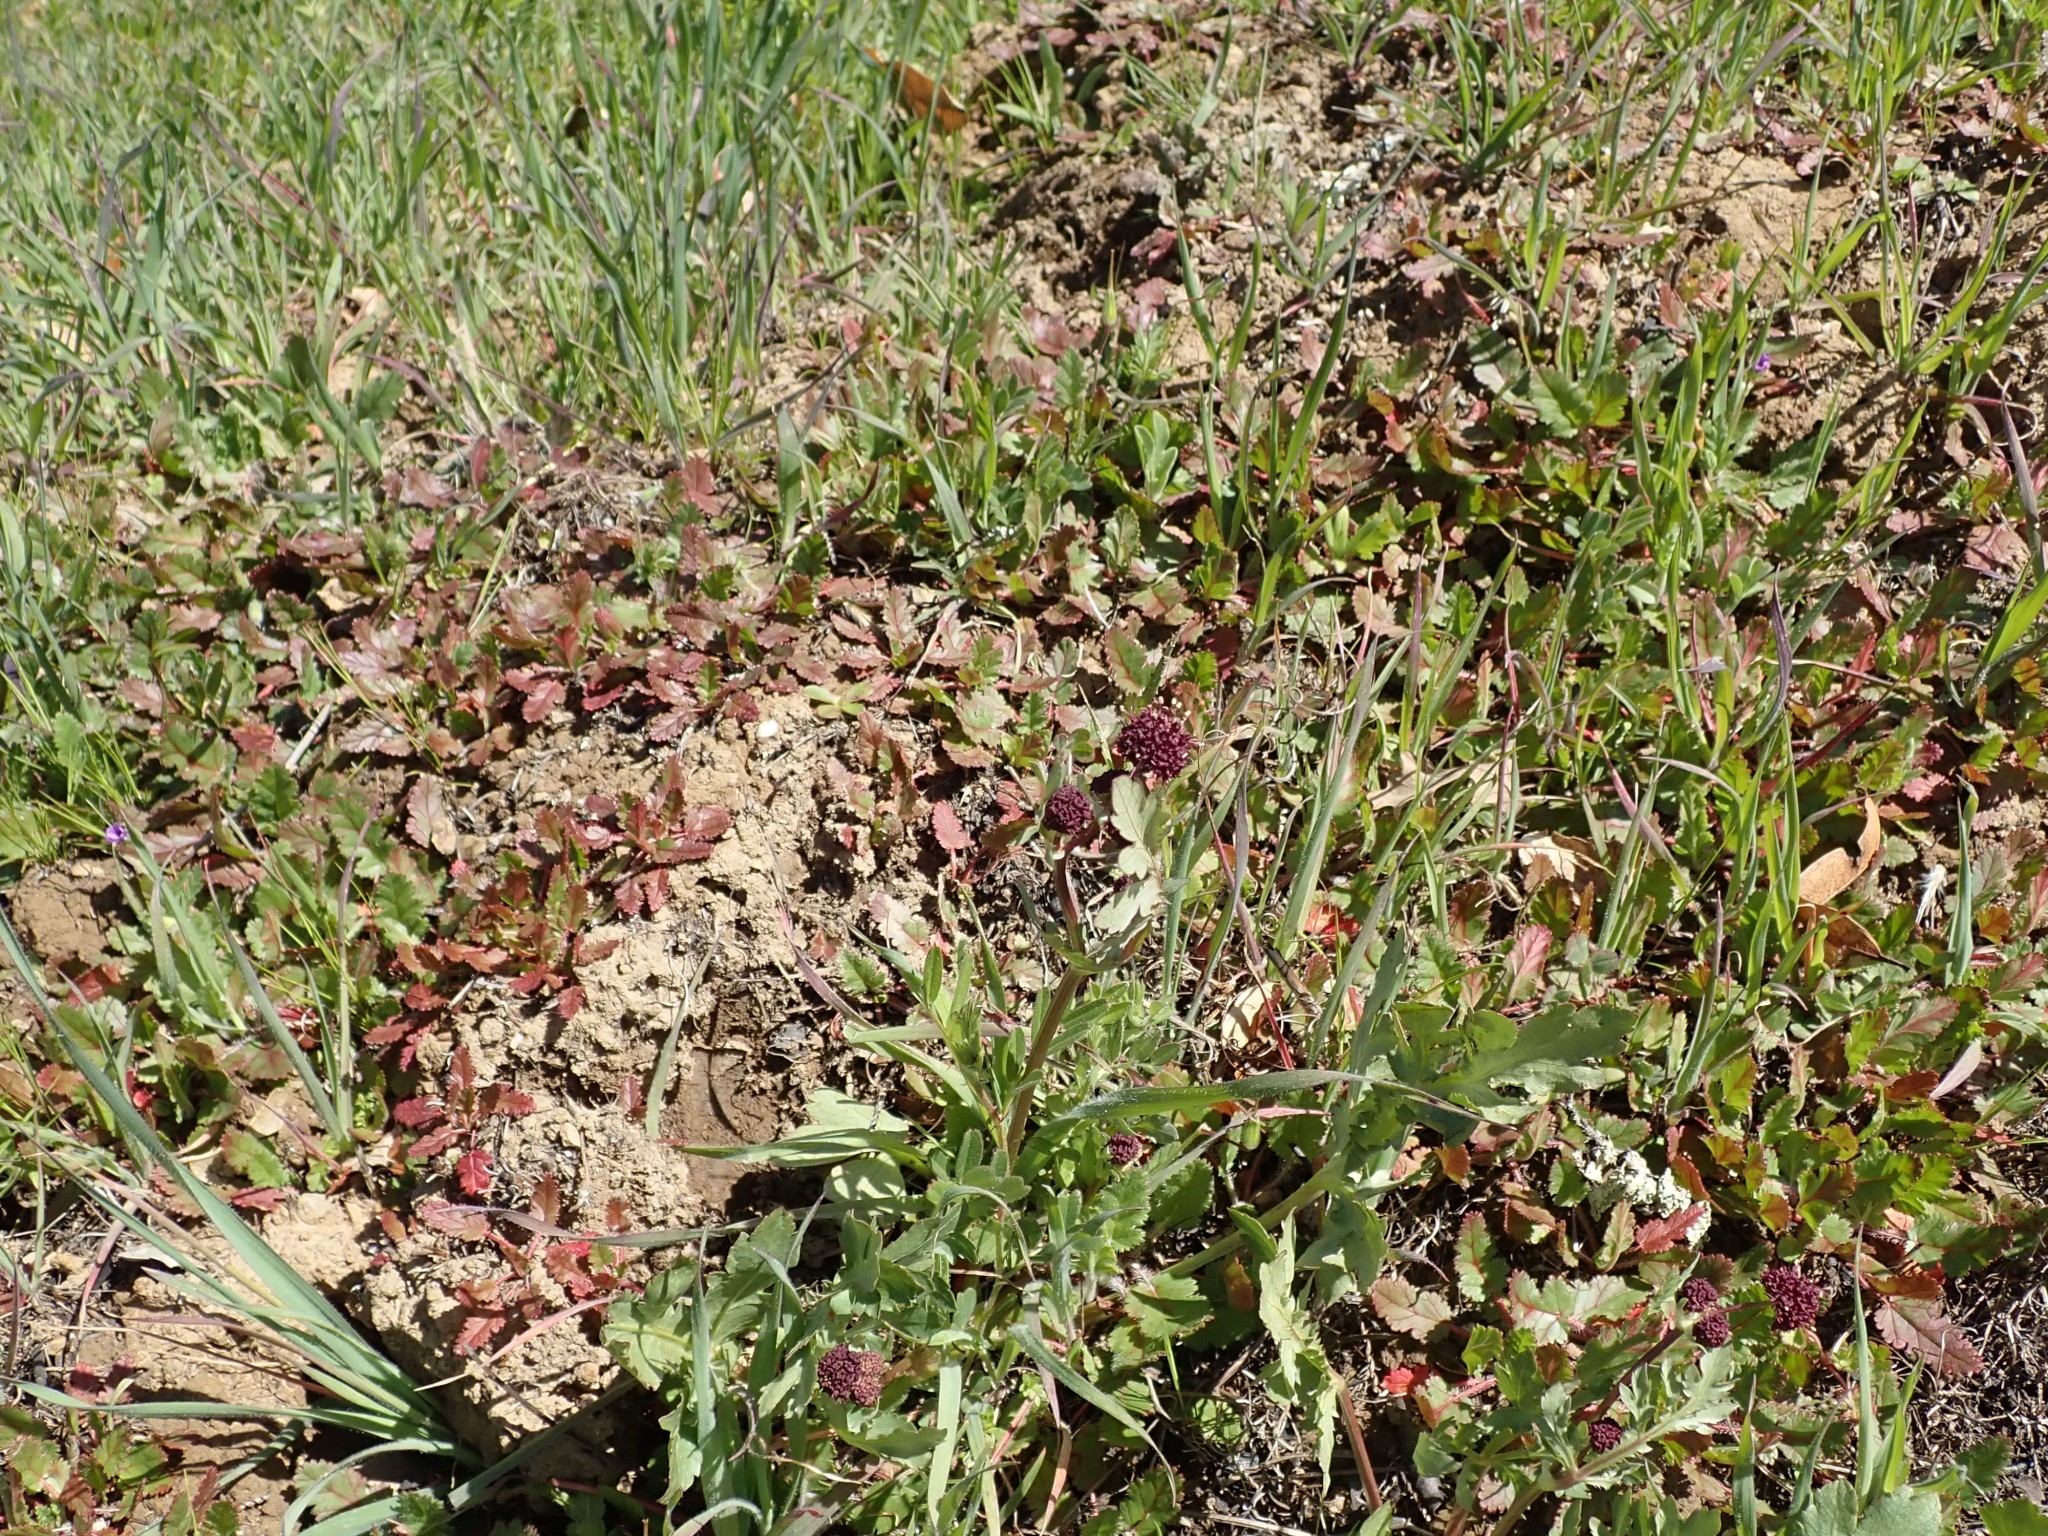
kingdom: Plantae
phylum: Tracheophyta
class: Magnoliopsida
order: Apiales
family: Apiaceae
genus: Sanicula
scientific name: Sanicula bipinnatifida
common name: Shoe-buttons
